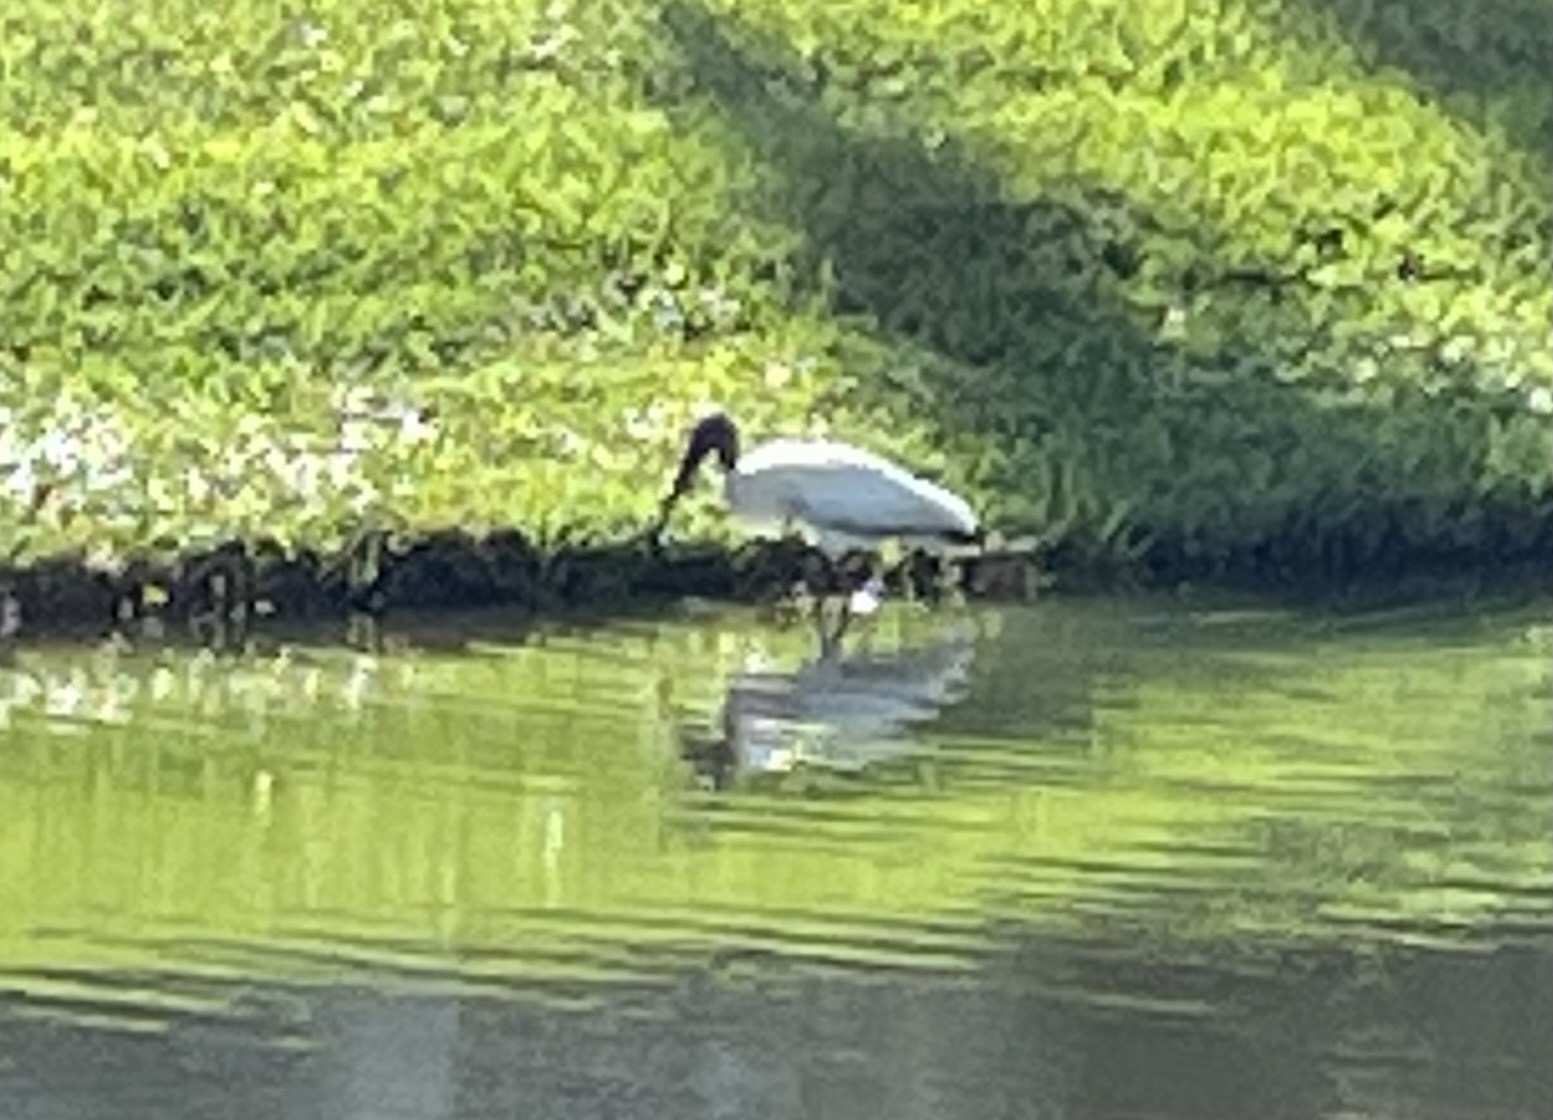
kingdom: Animalia
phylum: Chordata
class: Aves
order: Ciconiiformes
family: Ciconiidae
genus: Mycteria
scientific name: Mycteria americana
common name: Wood stork
